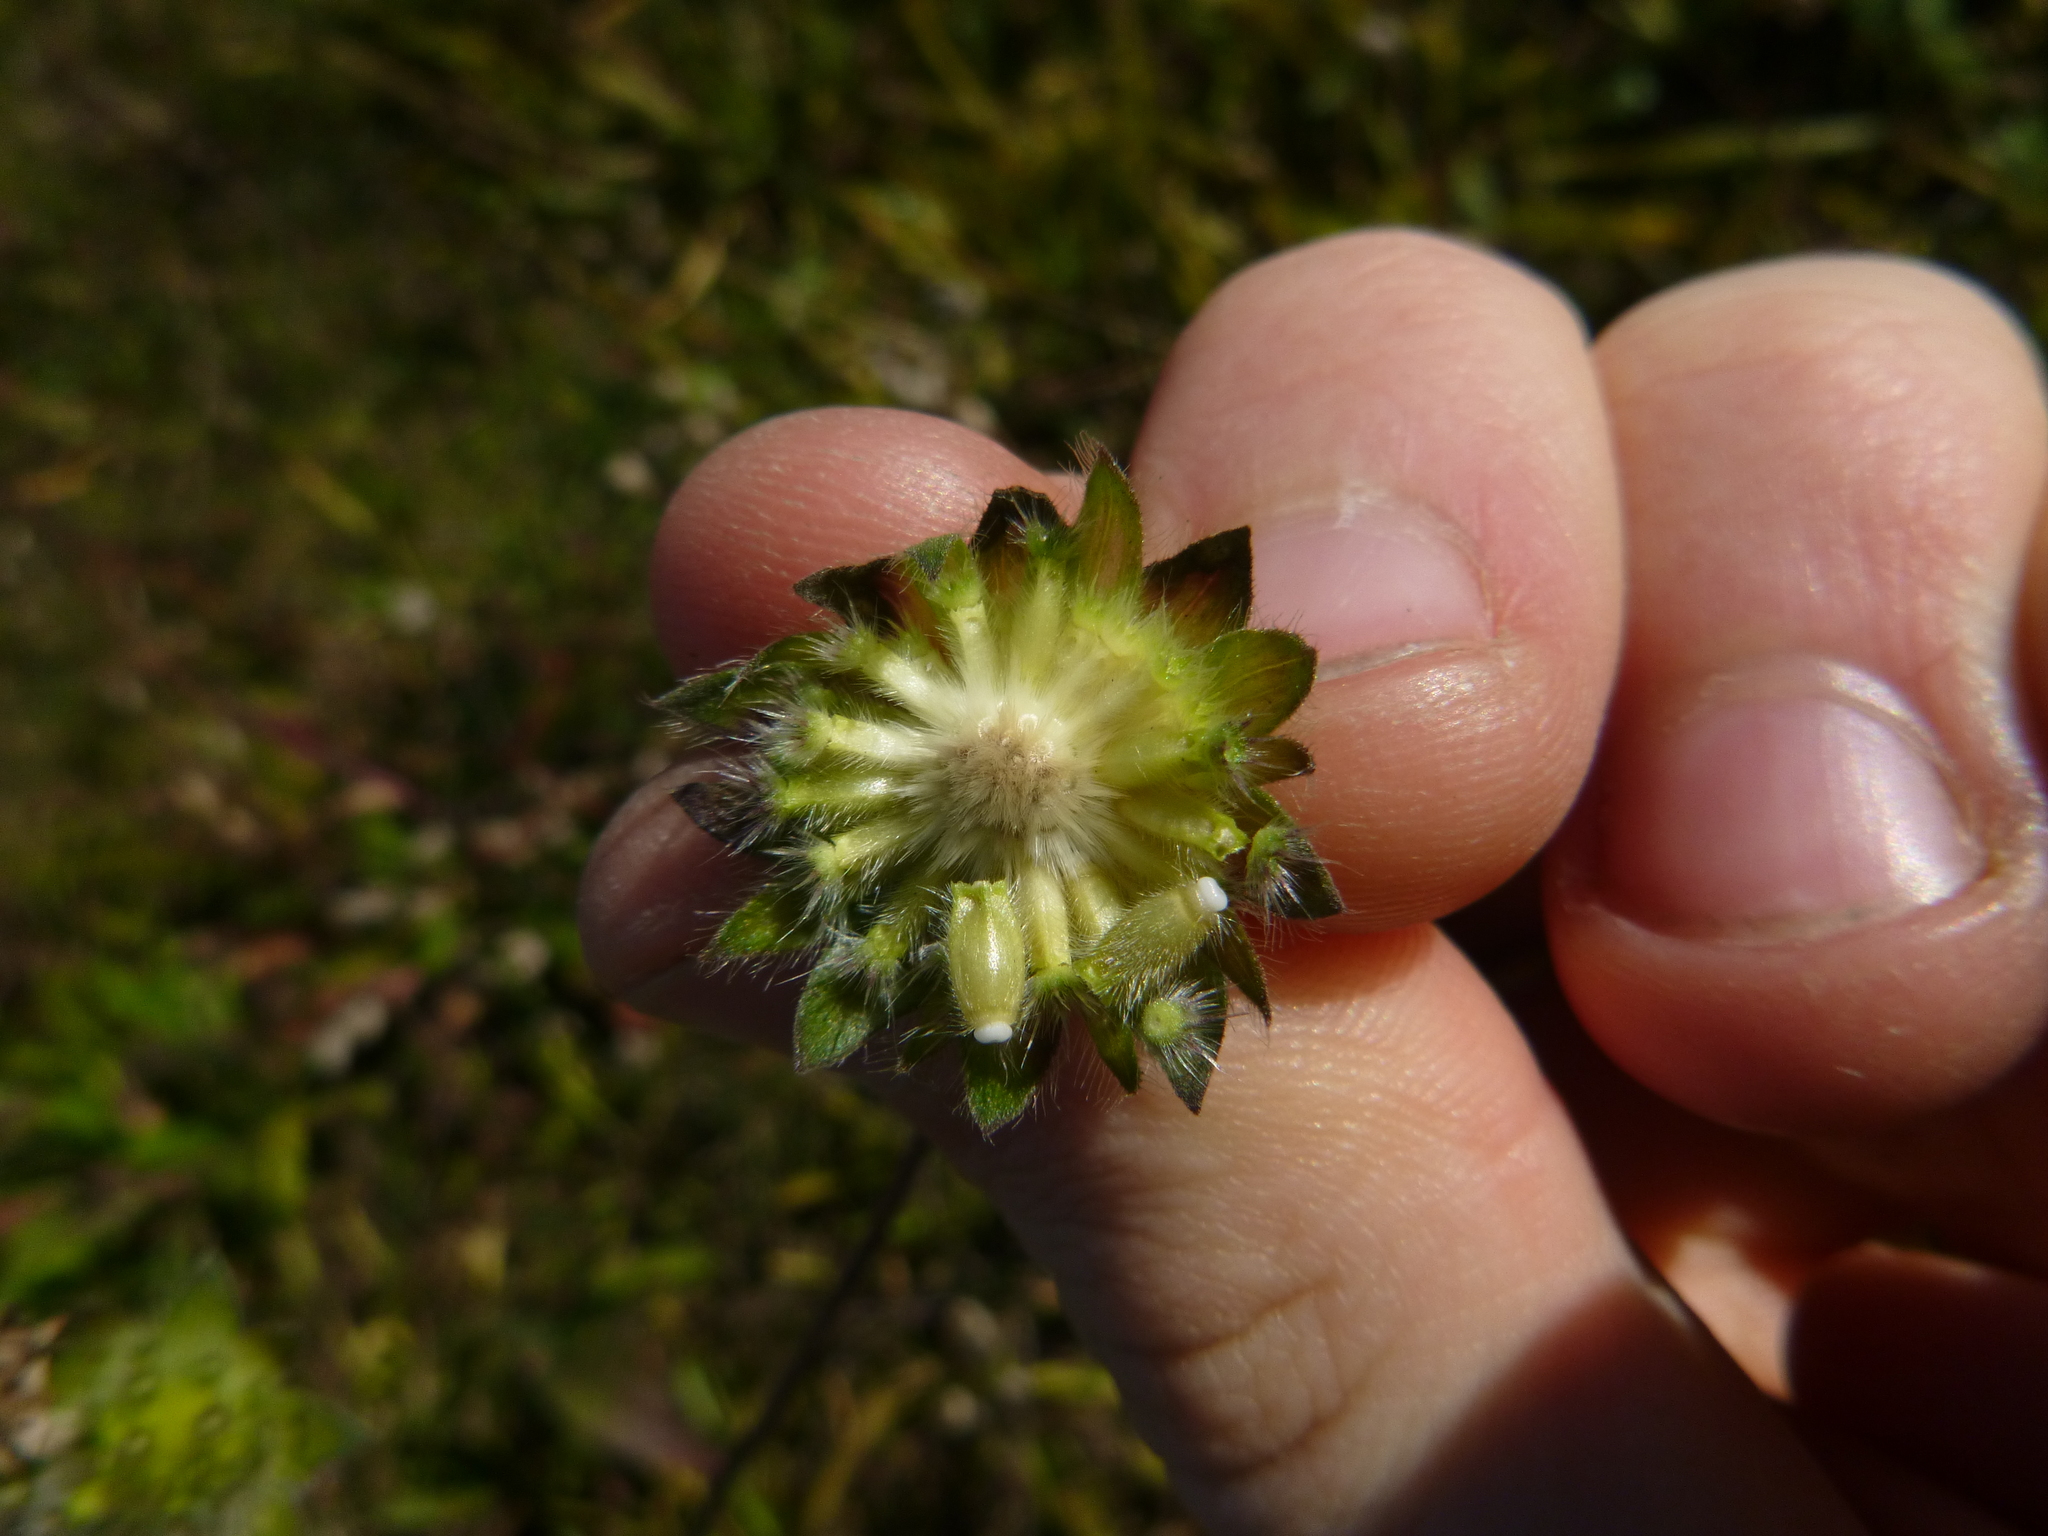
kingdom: Plantae
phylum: Tracheophyta
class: Magnoliopsida
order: Dipsacales
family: Caprifoliaceae
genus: Knautia
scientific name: Knautia arvensis
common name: Field scabiosa
